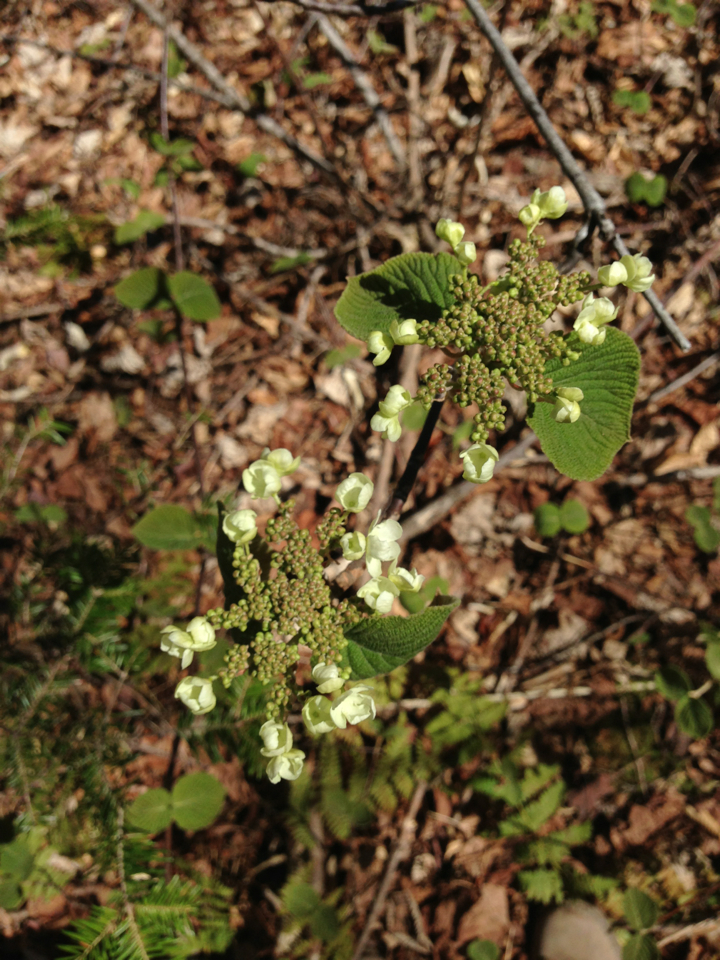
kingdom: Plantae
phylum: Tracheophyta
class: Magnoliopsida
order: Dipsacales
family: Viburnaceae
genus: Viburnum
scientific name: Viburnum lantanoides
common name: Hobblebush
